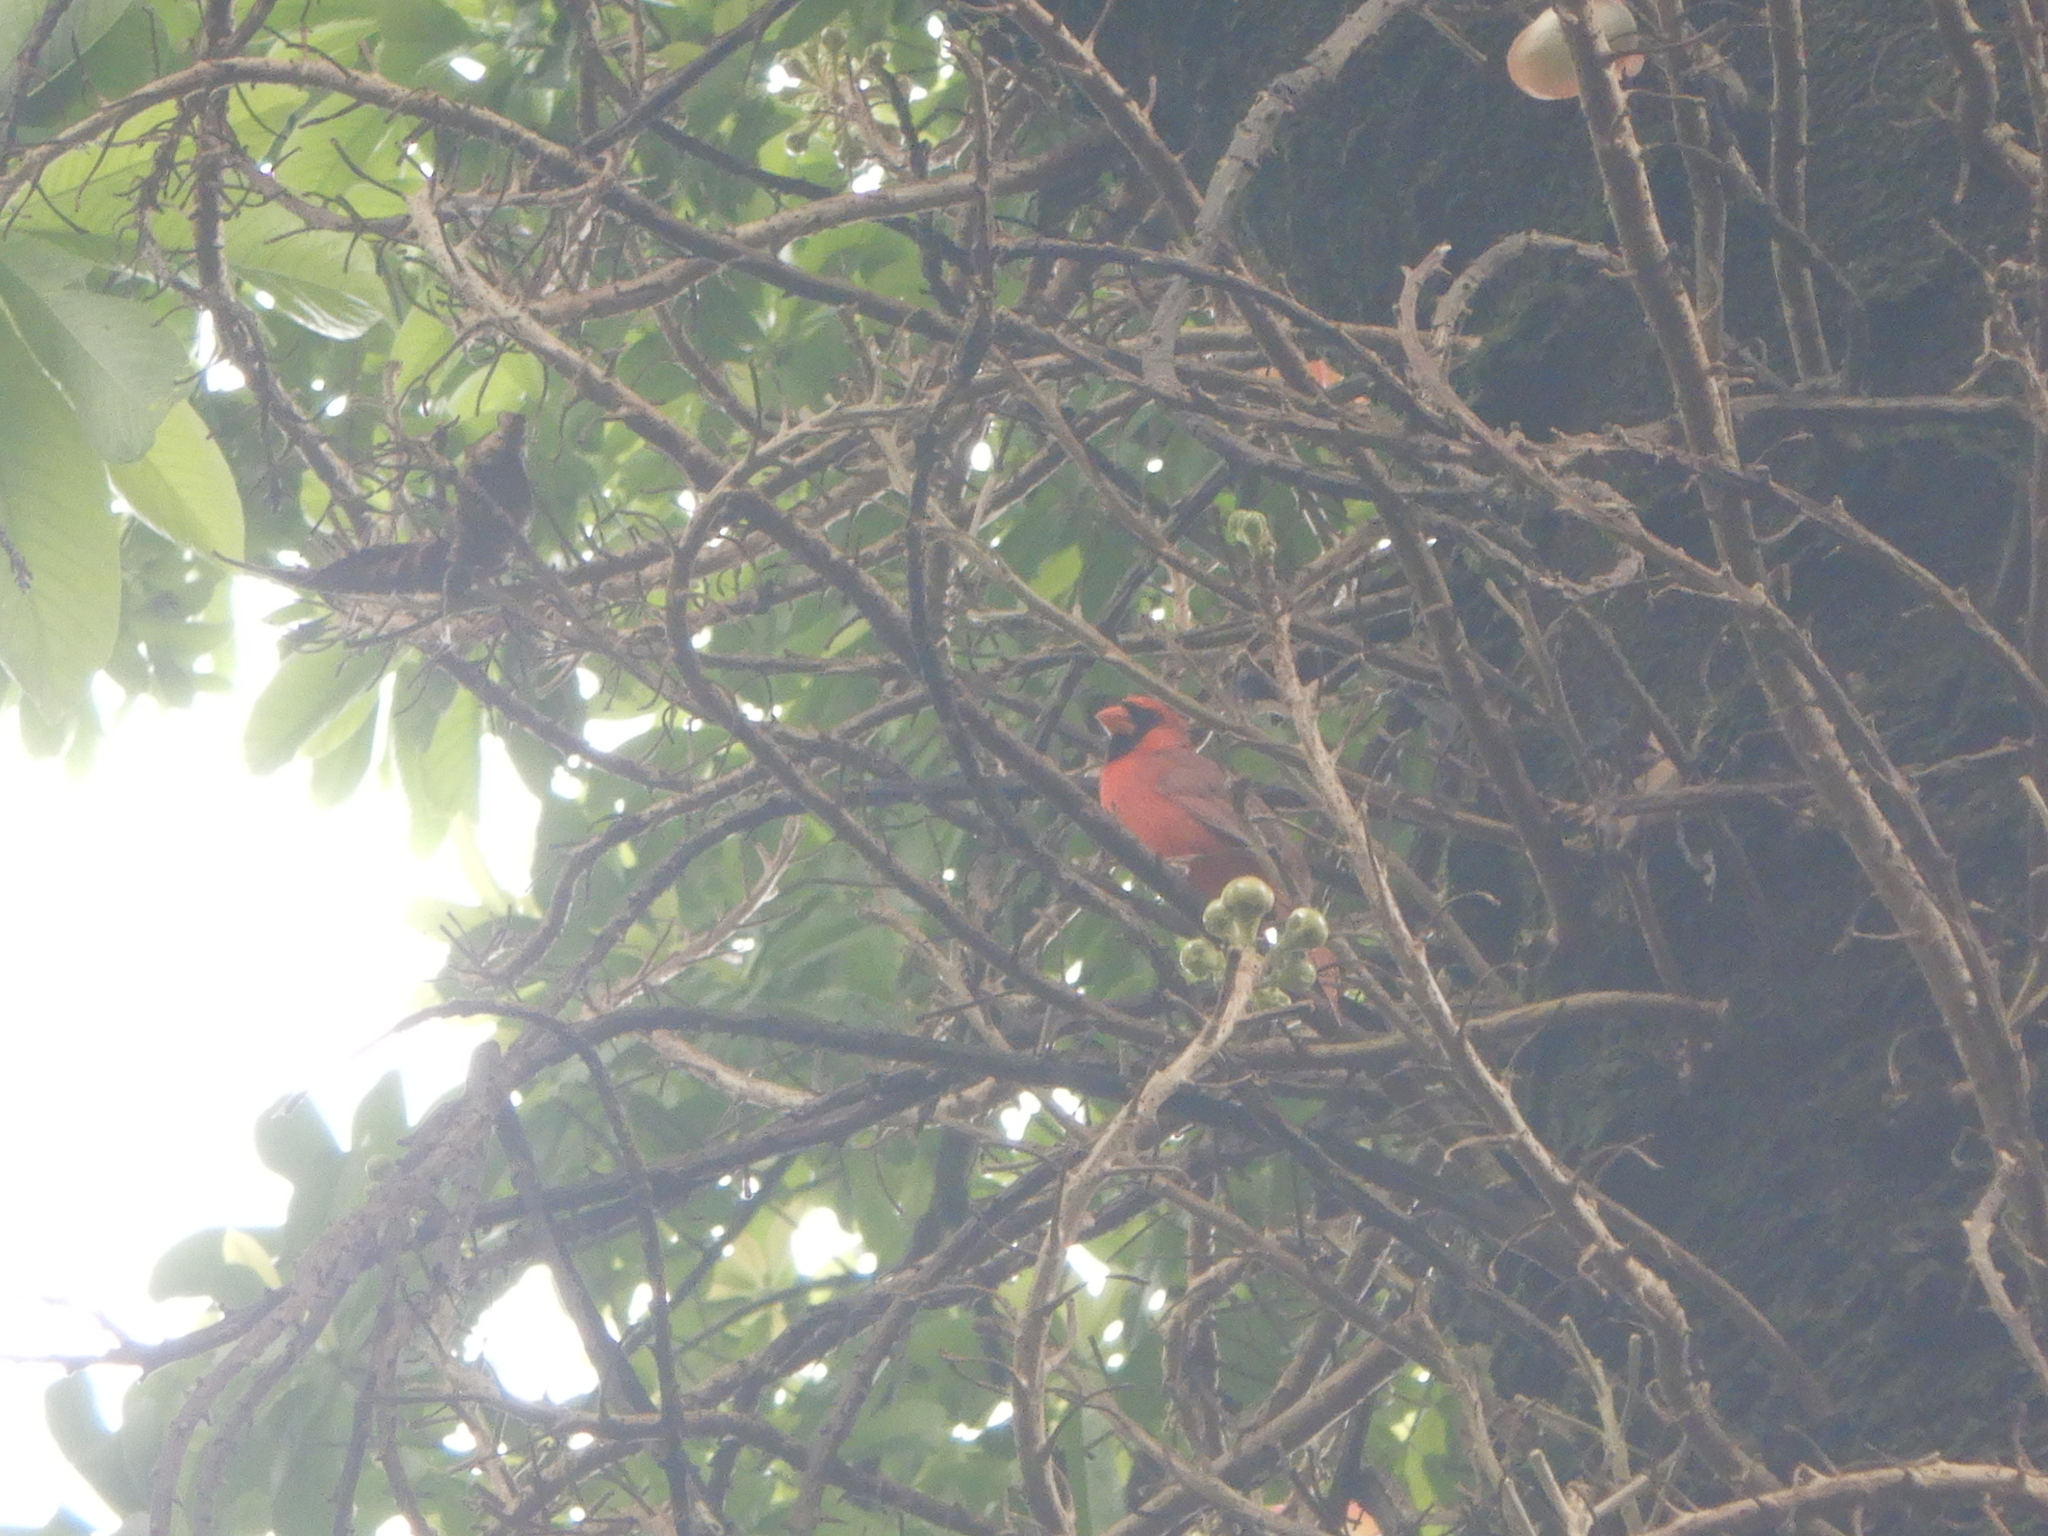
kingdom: Animalia
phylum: Chordata
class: Aves
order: Passeriformes
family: Cardinalidae
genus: Cardinalis
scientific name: Cardinalis cardinalis
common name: Northern cardinal
